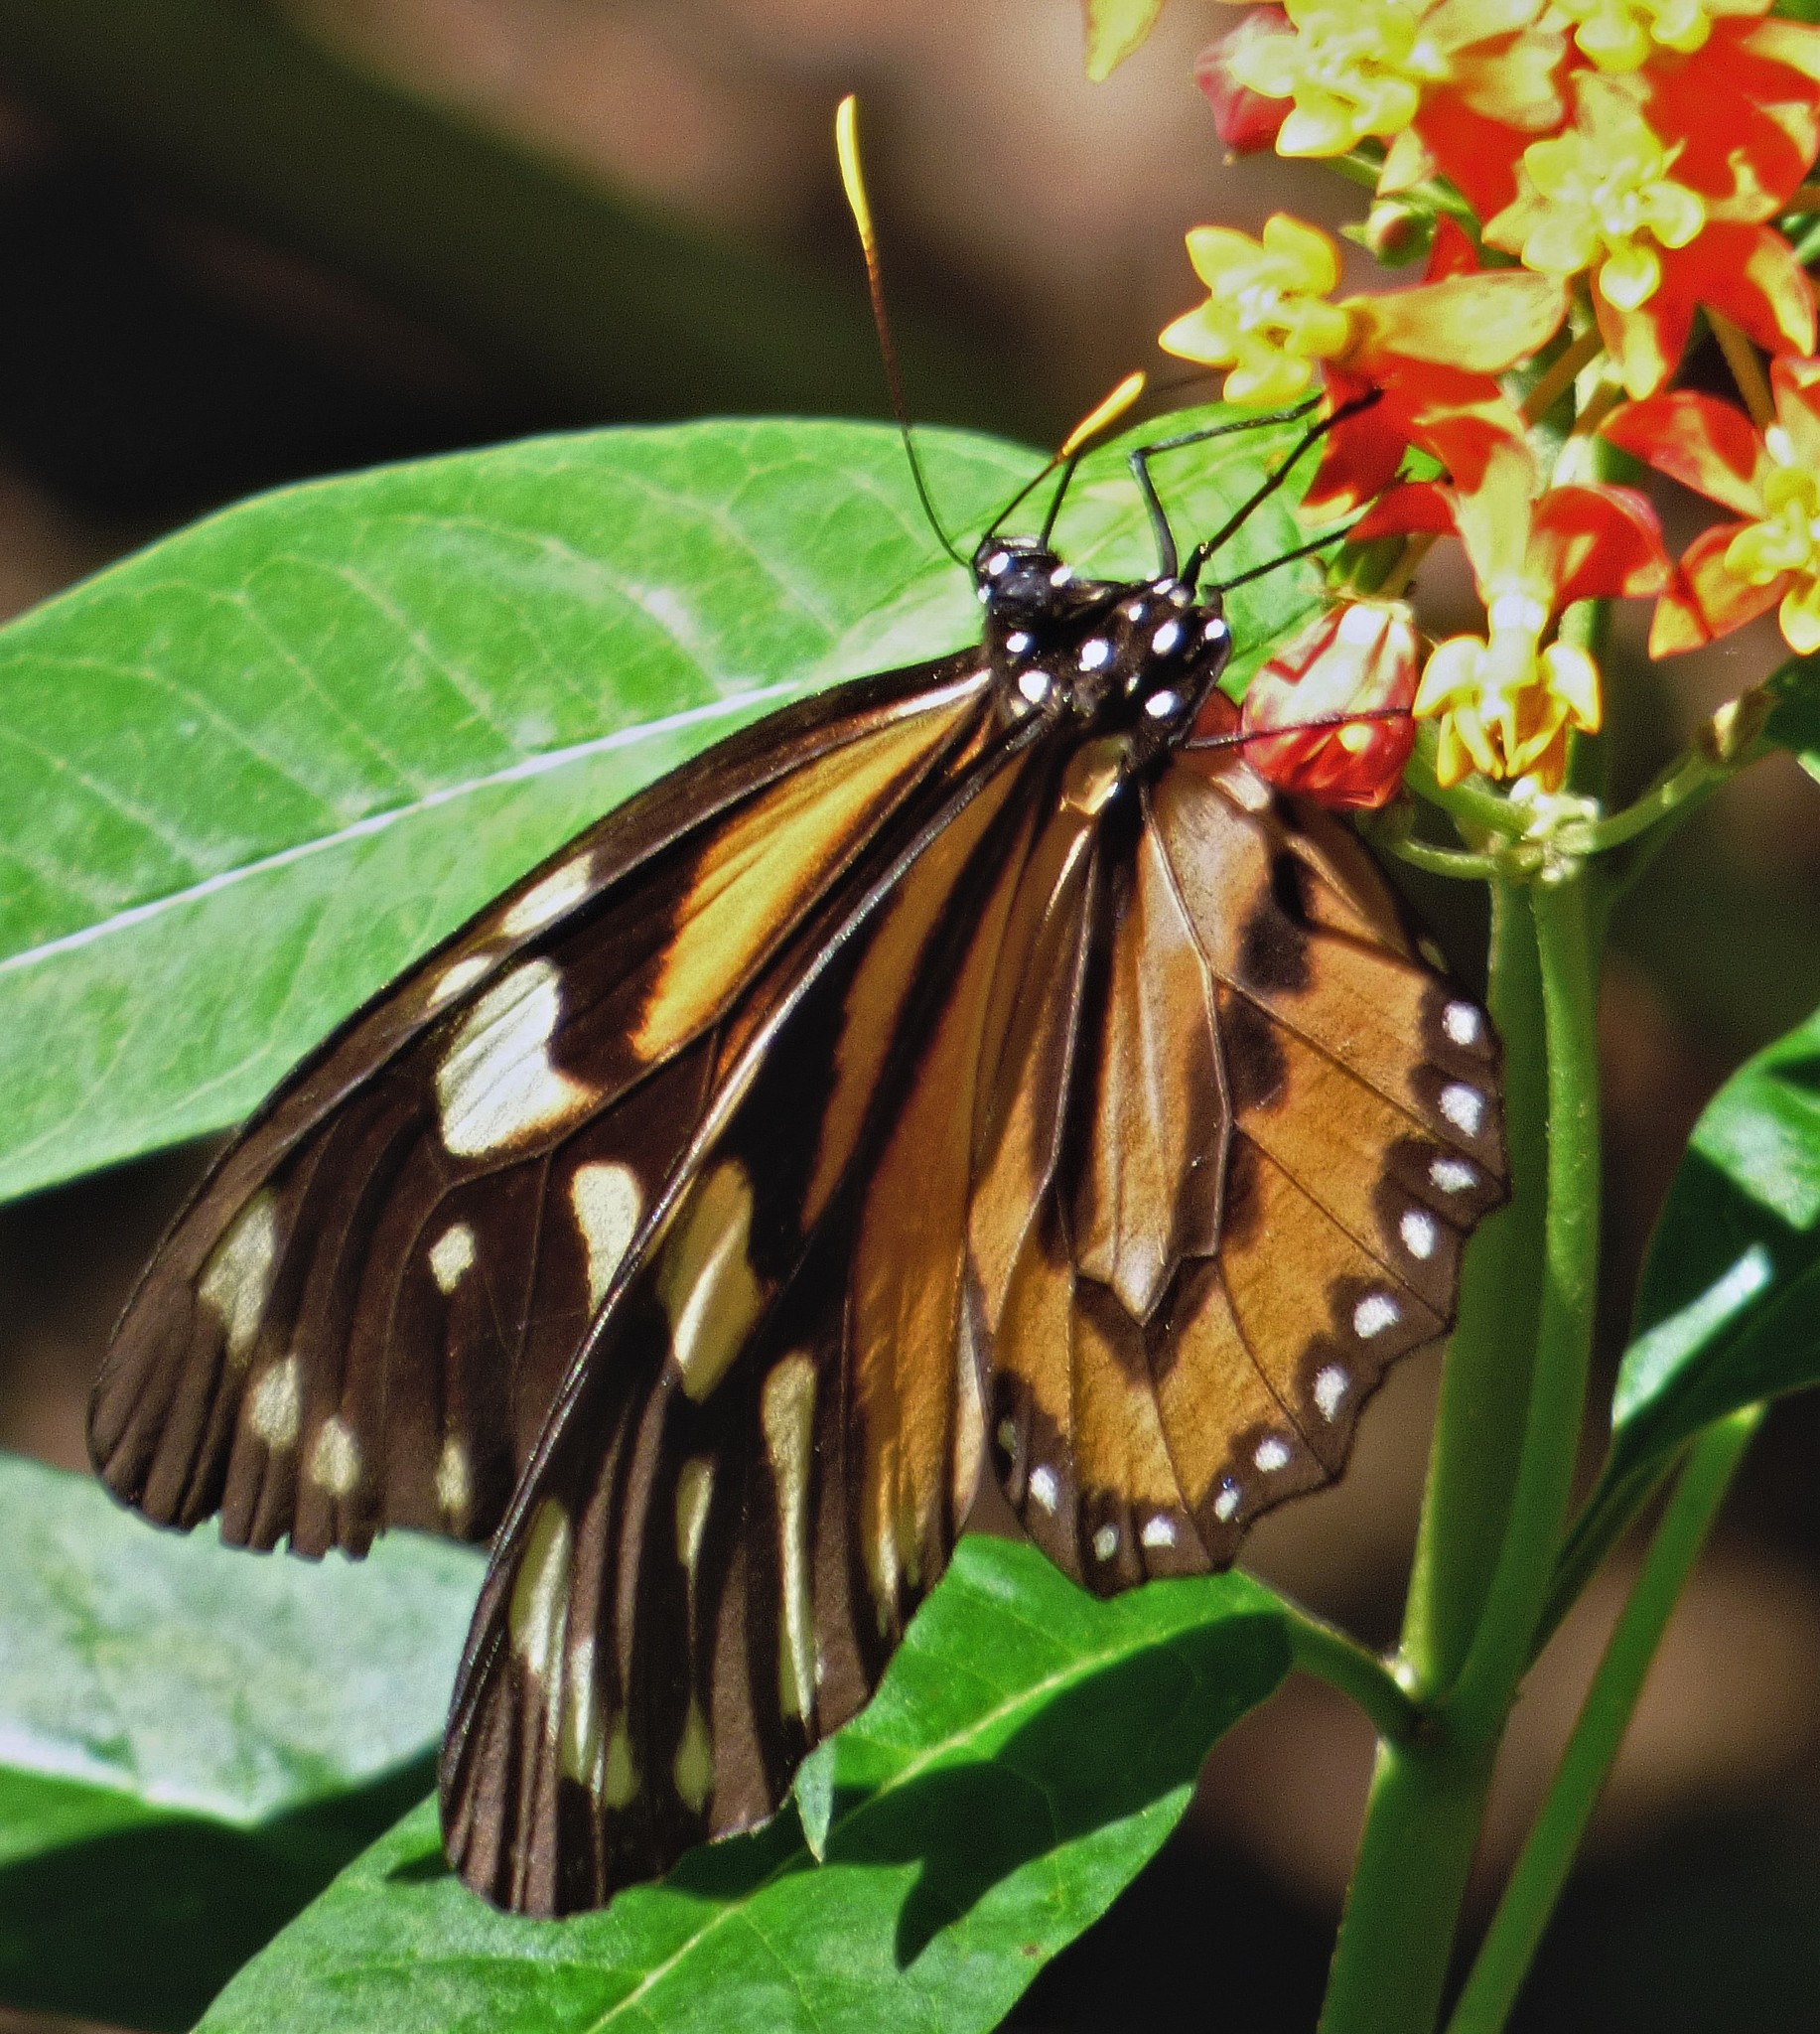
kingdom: Animalia
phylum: Arthropoda
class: Insecta
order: Lepidoptera
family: Nymphalidae
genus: Lycorea
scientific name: Lycorea cleobaea
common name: Tiger mimic-queen
